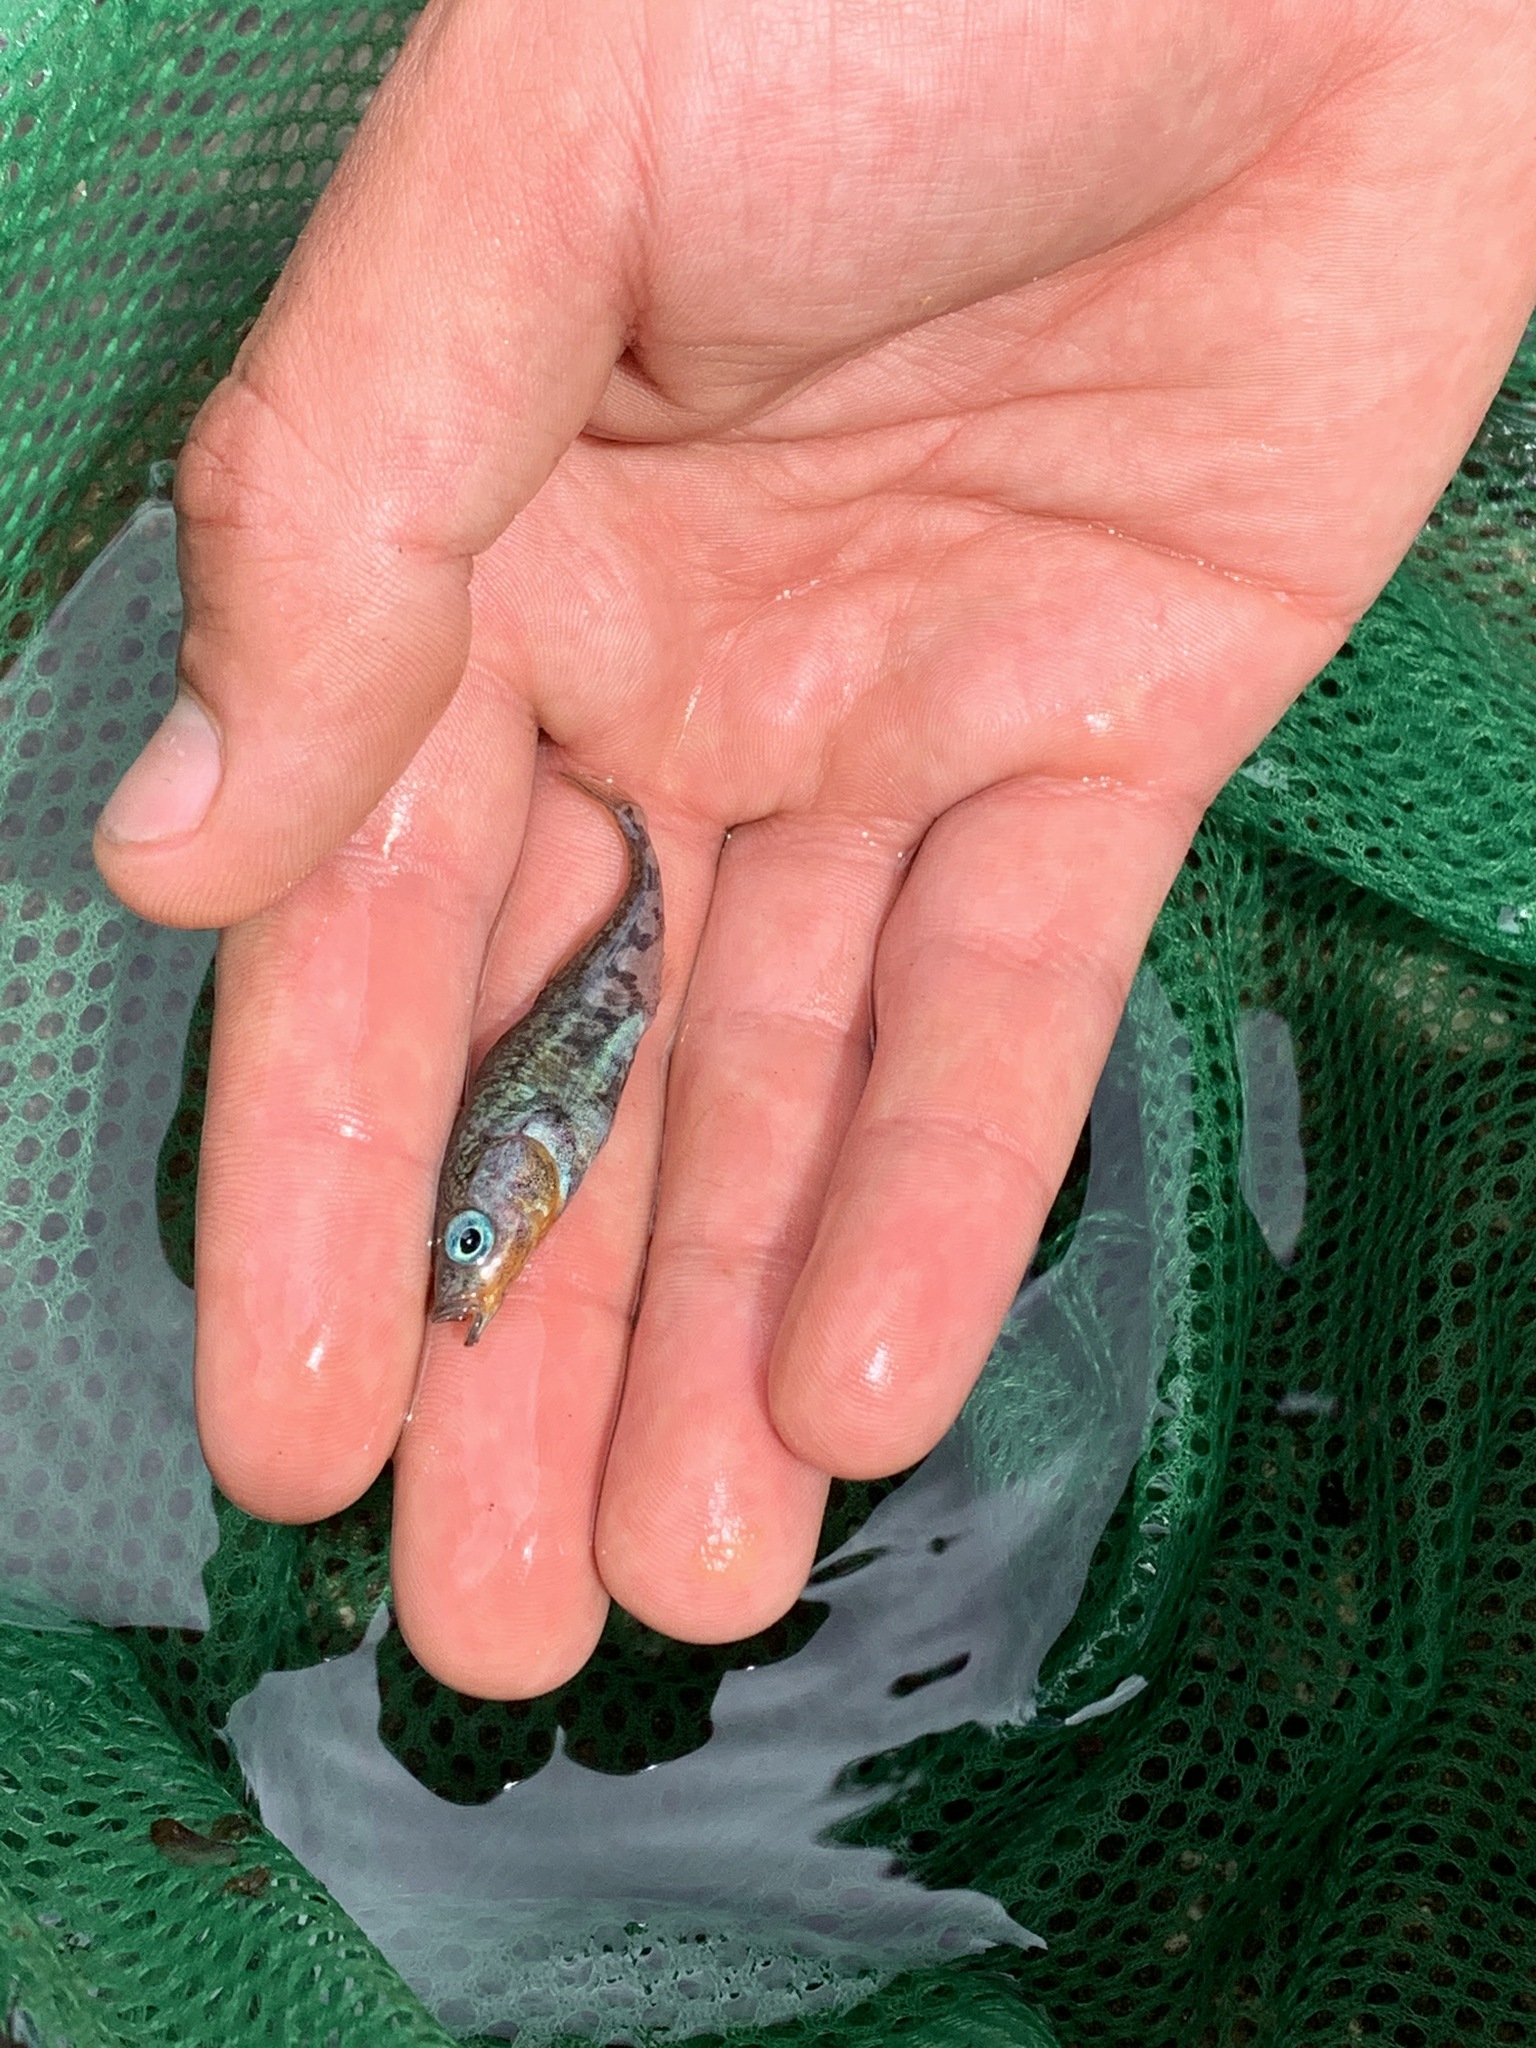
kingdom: Animalia
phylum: Chordata
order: Gasterosteiformes
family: Gasterosteidae
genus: Gasterosteus
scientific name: Gasterosteus aculeatus
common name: Three-spined stickleback
